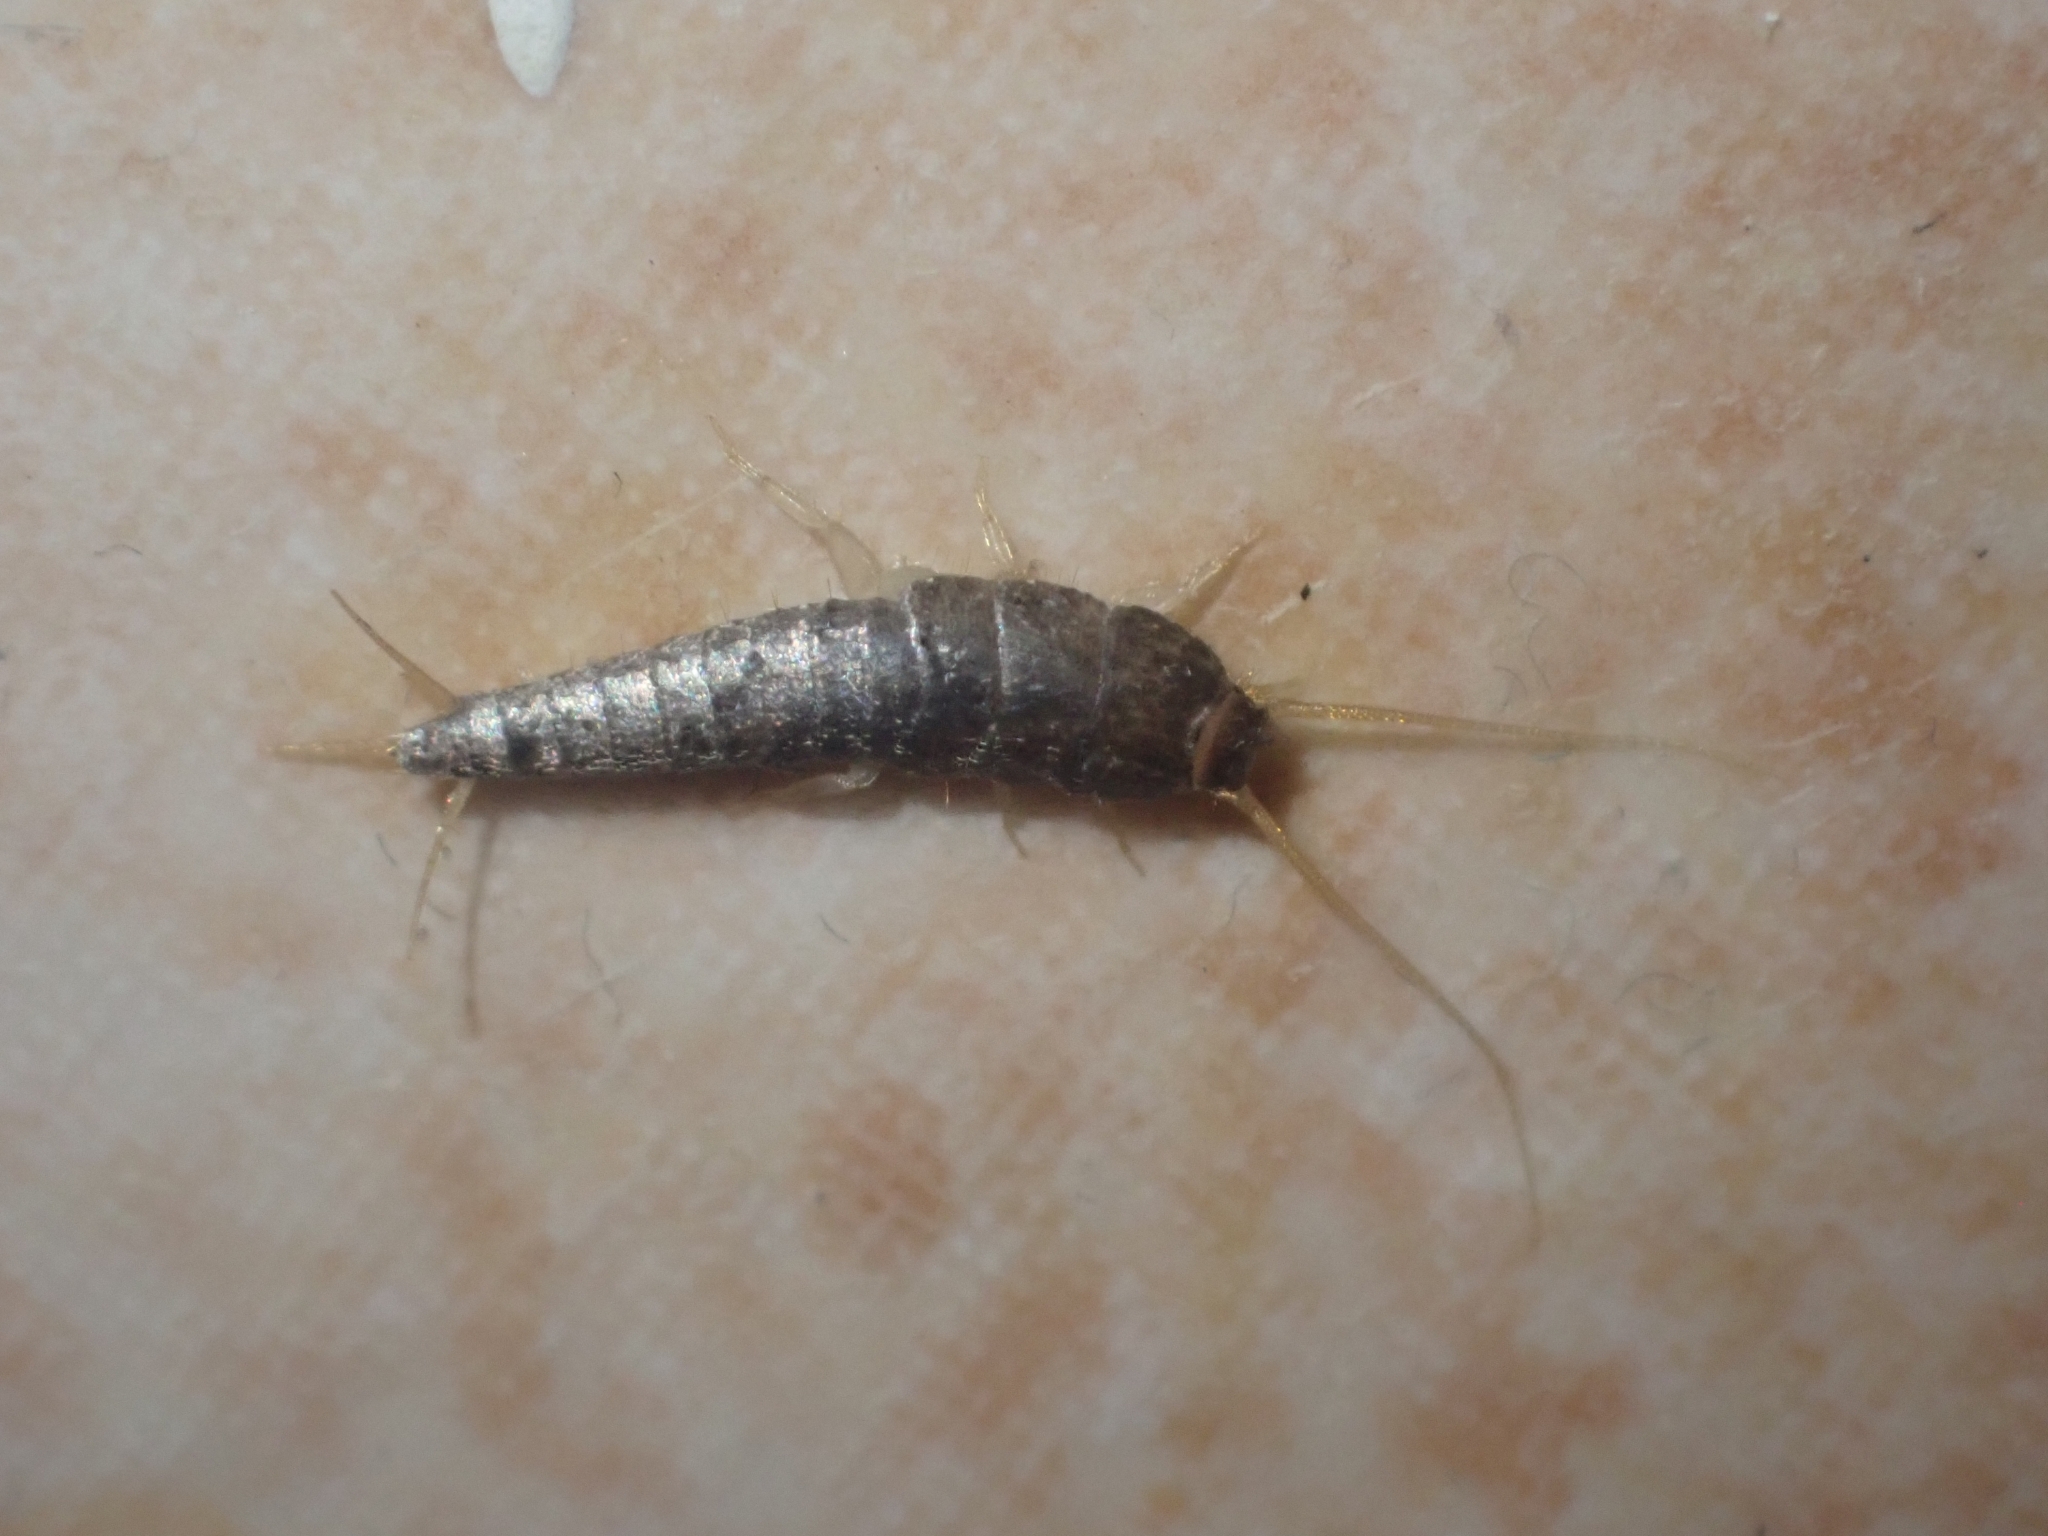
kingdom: Animalia
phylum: Arthropoda
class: Insecta
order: Zygentoma
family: Lepismatidae
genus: Lepisma
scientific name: Lepisma saccharinum
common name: Silverfish
